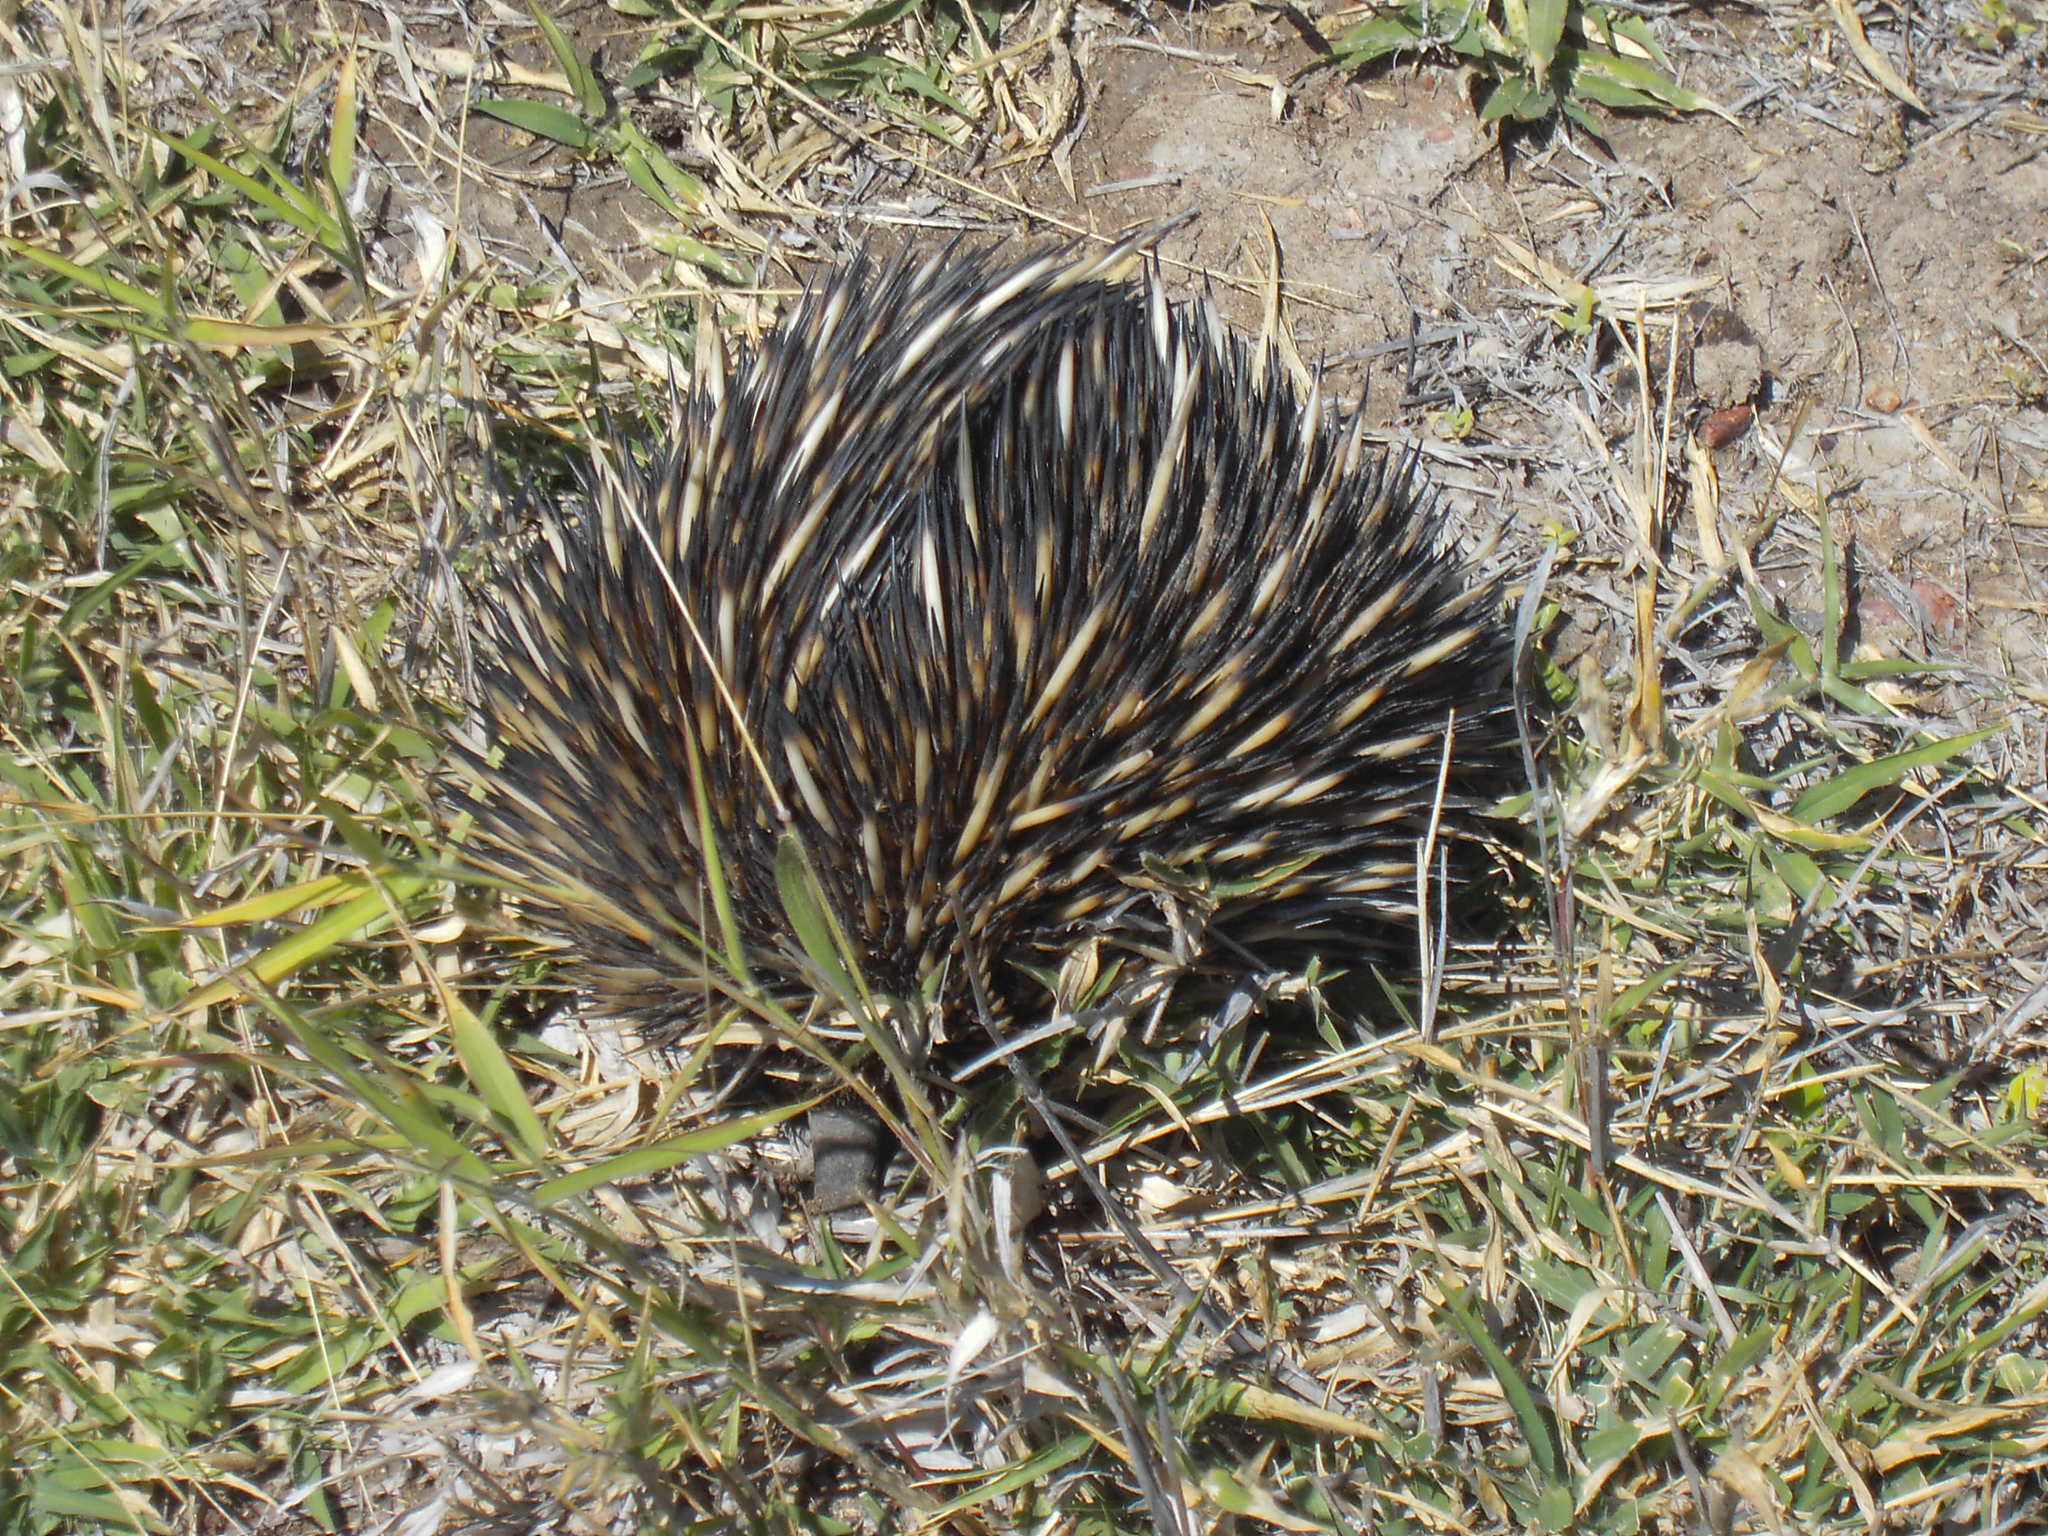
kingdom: Animalia
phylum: Chordata
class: Mammalia
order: Monotremata
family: Tachyglossidae
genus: Tachyglossus
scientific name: Tachyglossus aculeatus
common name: Short-beaked echidna
